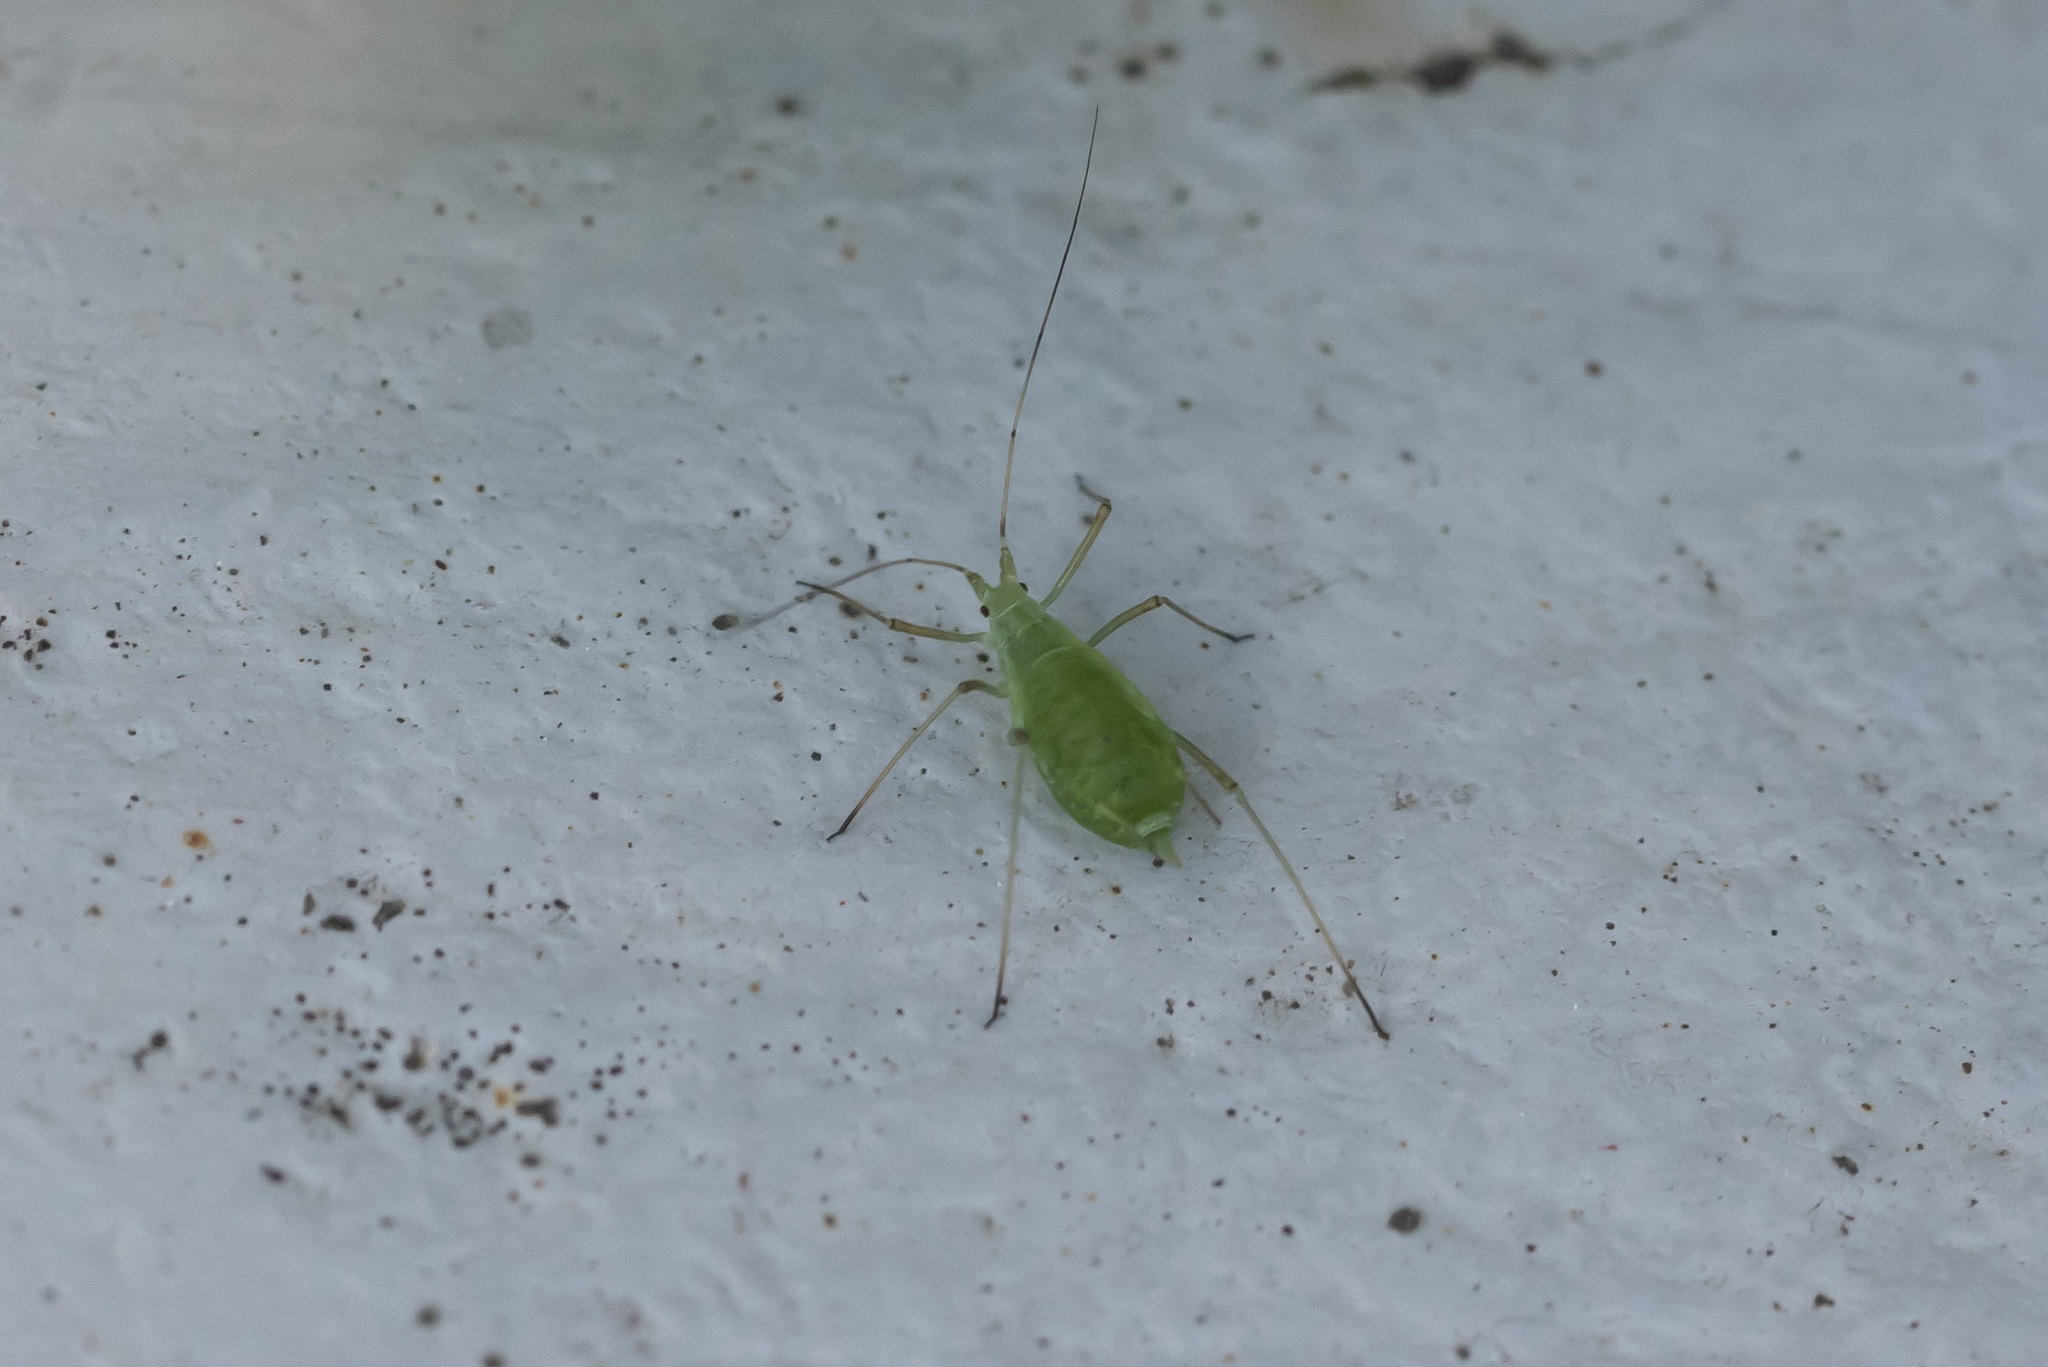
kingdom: Animalia
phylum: Arthropoda
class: Insecta
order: Hemiptera
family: Aphididae
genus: Acyrthosiphon
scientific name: Acyrthosiphon pisum
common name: Pea aphid
